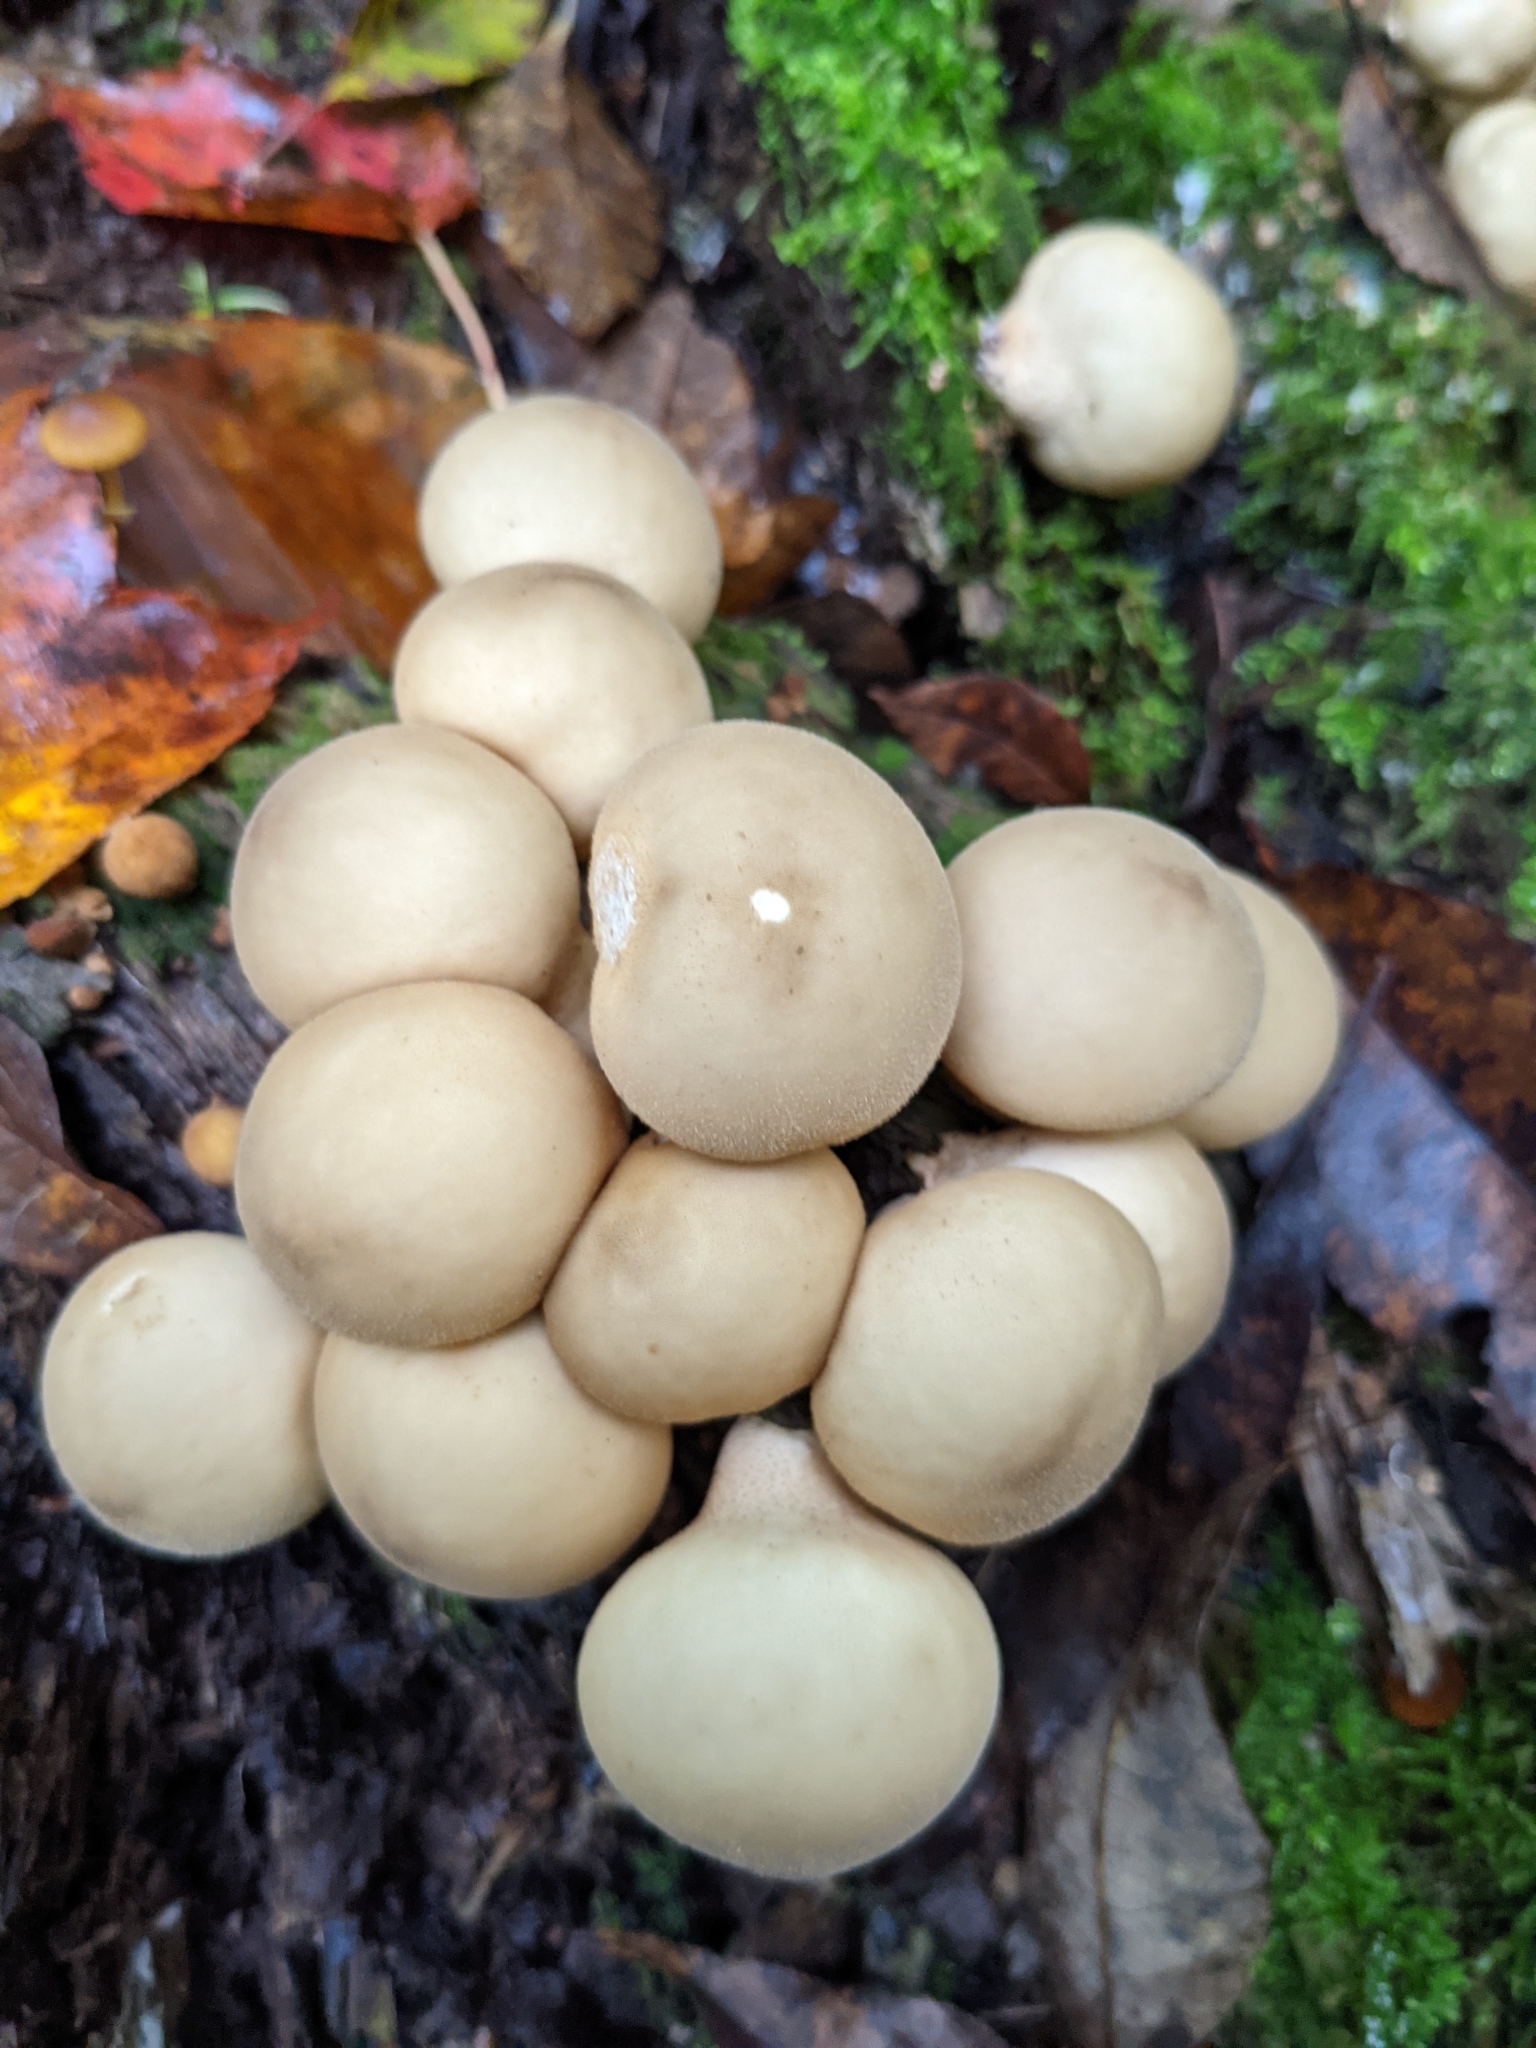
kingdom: Fungi
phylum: Basidiomycota
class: Agaricomycetes
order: Agaricales
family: Lycoperdaceae
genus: Apioperdon
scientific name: Apioperdon pyriforme
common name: Pear-shaped puffball
